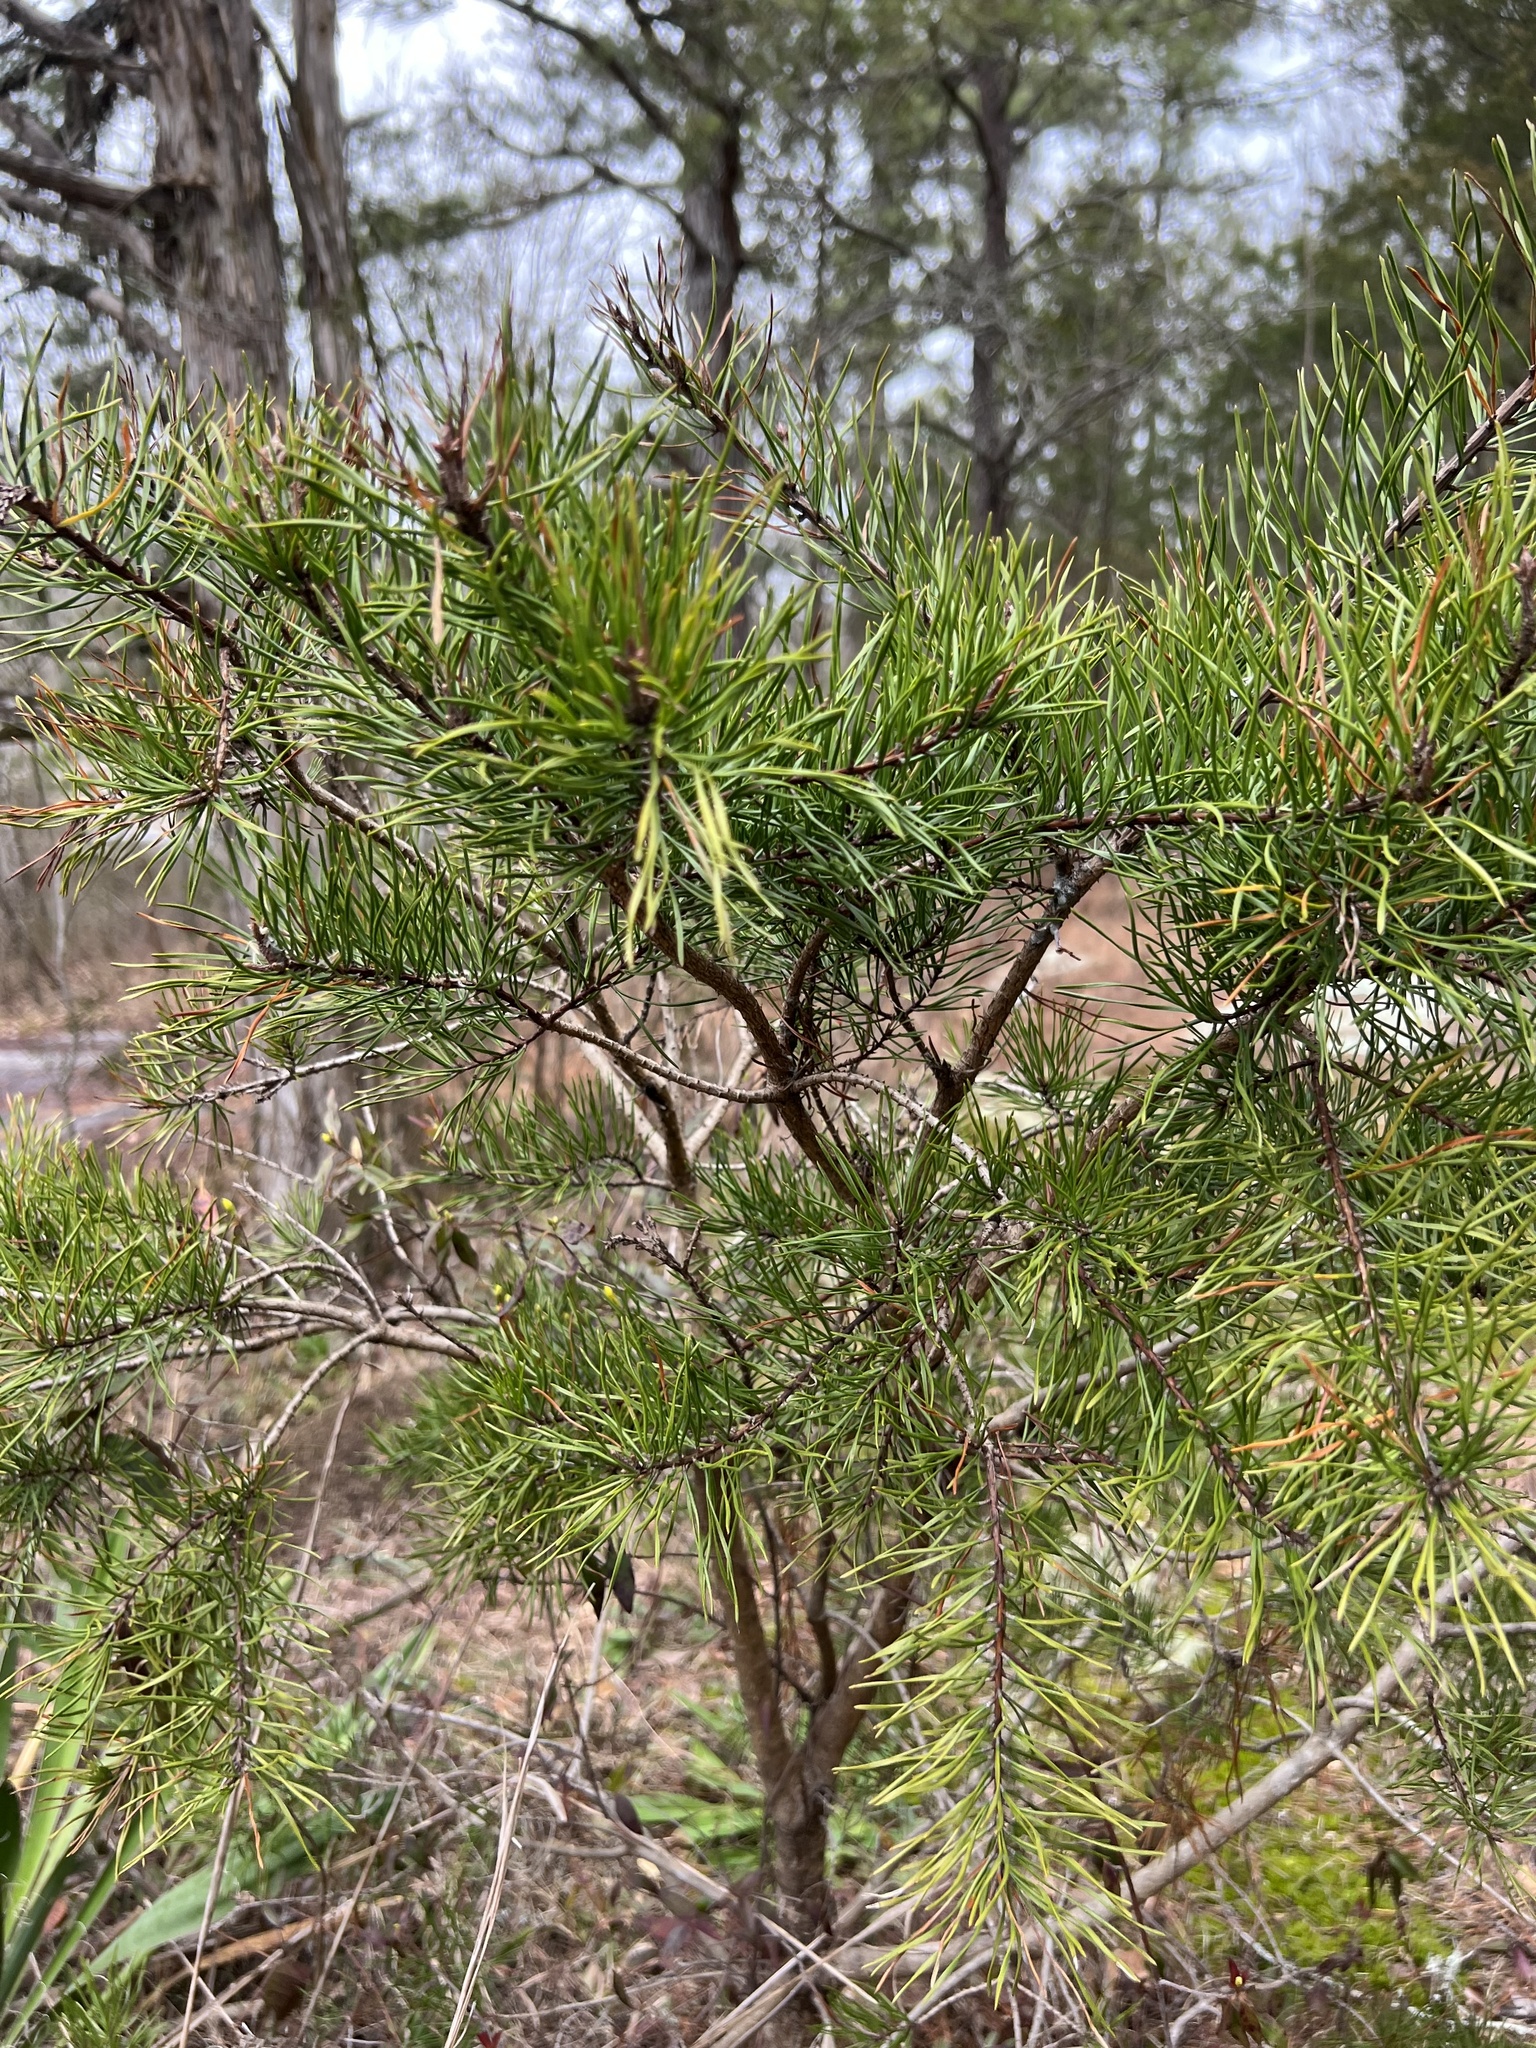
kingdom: Plantae
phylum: Tracheophyta
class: Pinopsida
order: Pinales
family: Pinaceae
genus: Pinus
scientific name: Pinus virginiana
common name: Scrub pine
